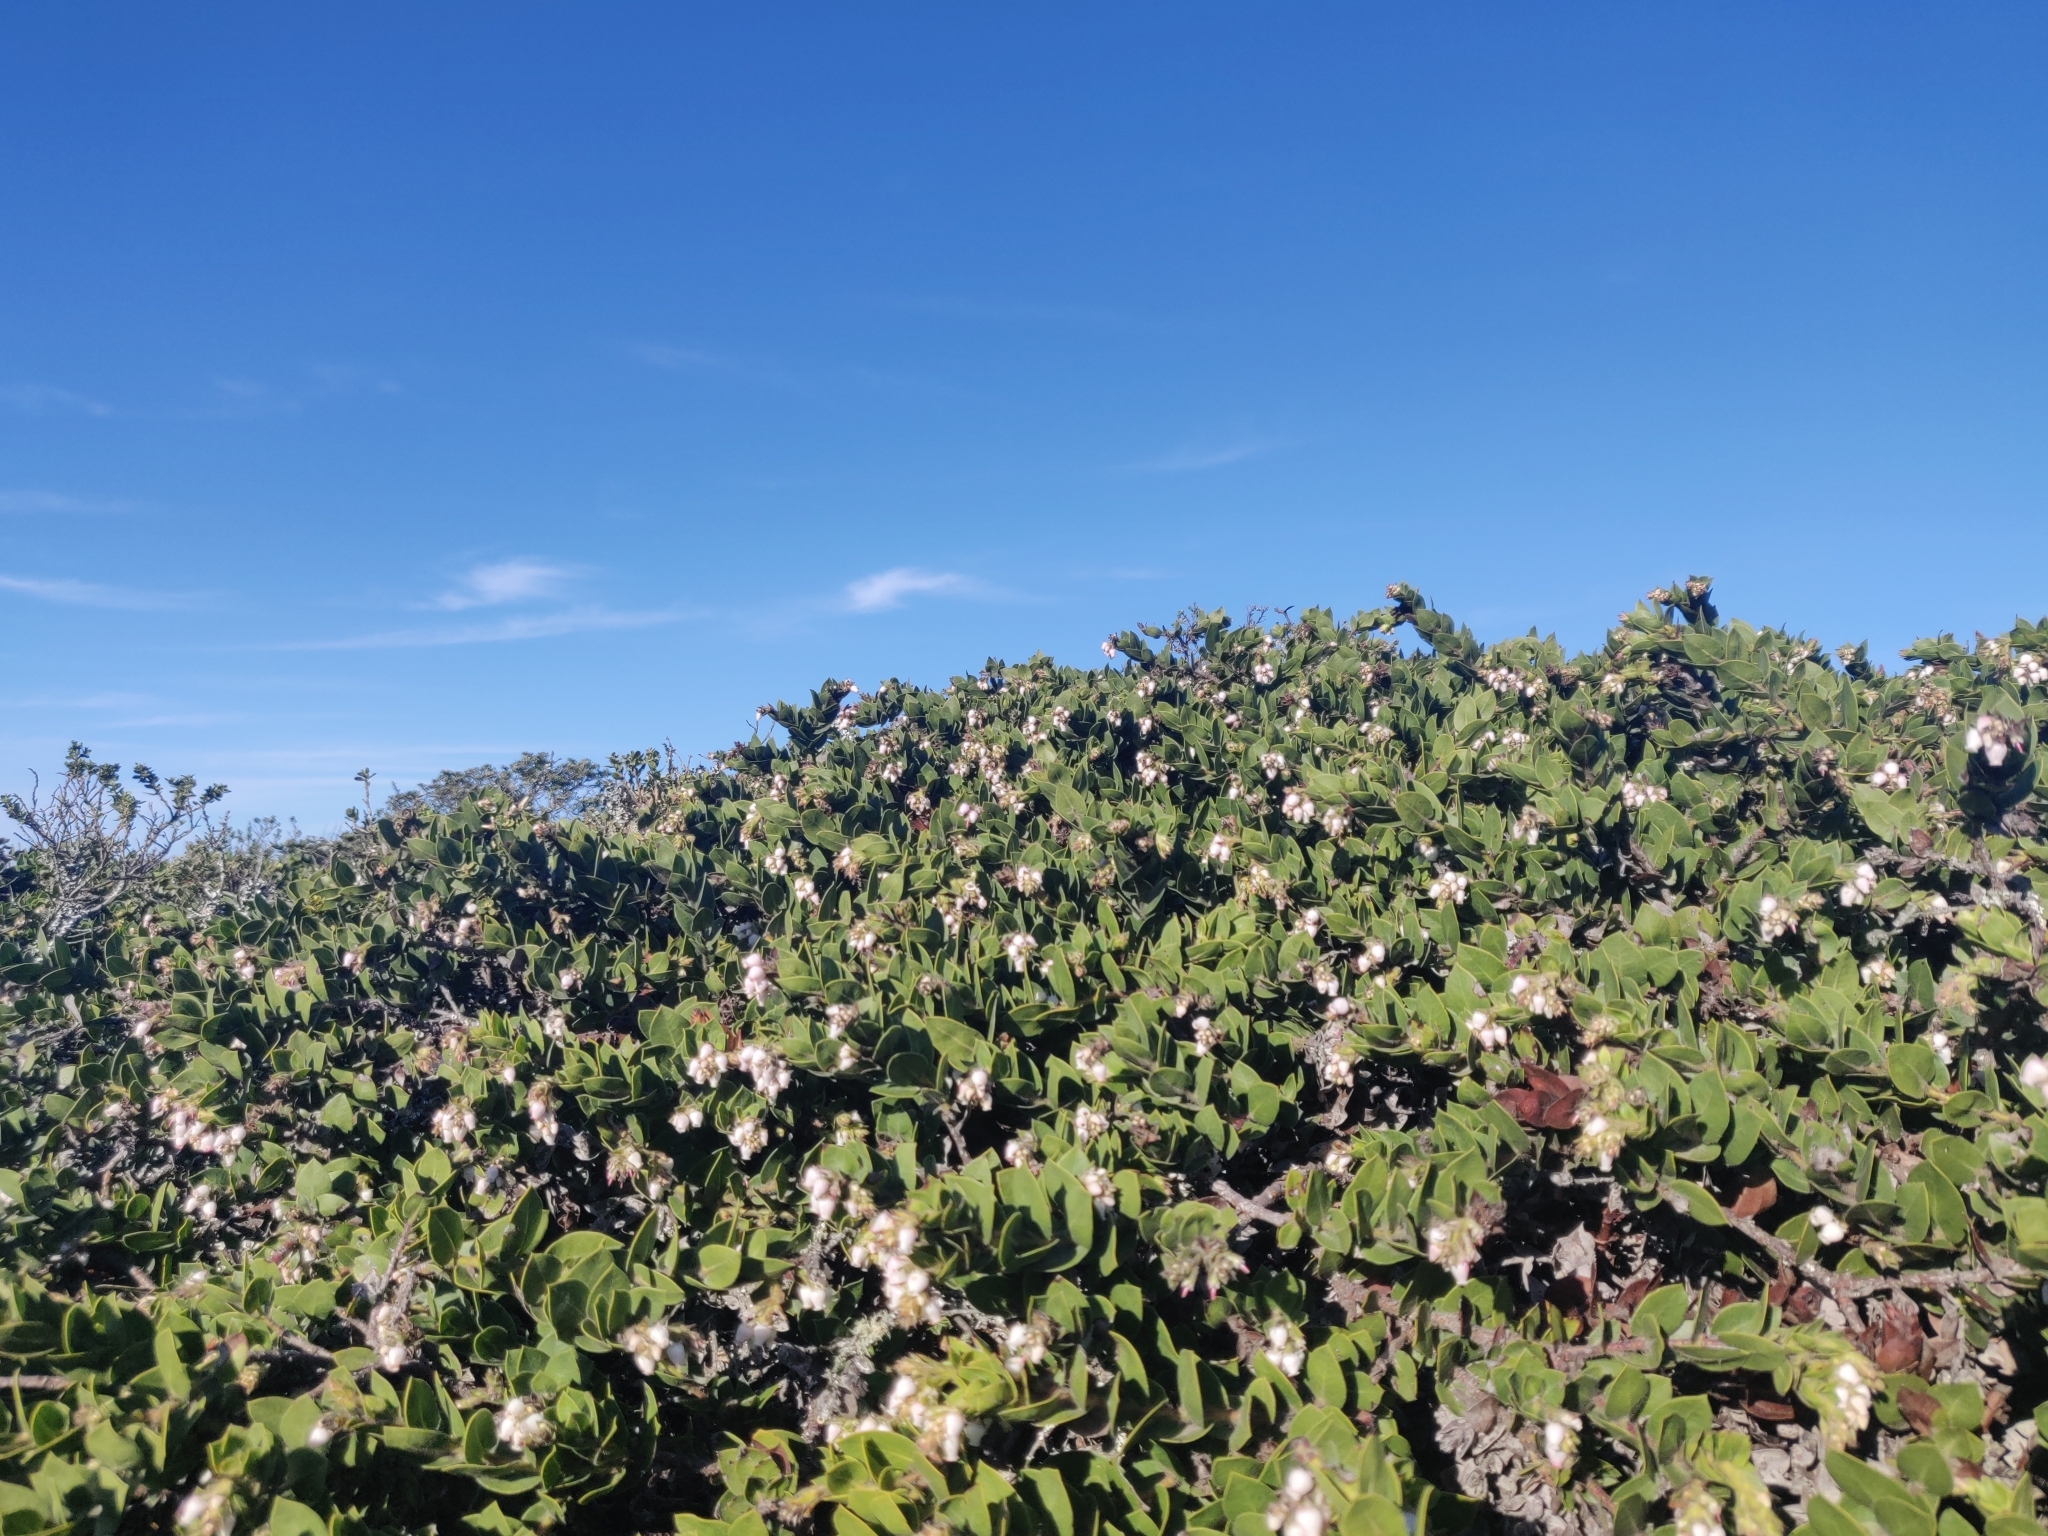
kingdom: Plantae
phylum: Tracheophyta
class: Magnoliopsida
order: Ericales
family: Ericaceae
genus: Arctostaphylos
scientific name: Arctostaphylos imbricata
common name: San bruno mountain manzanita
